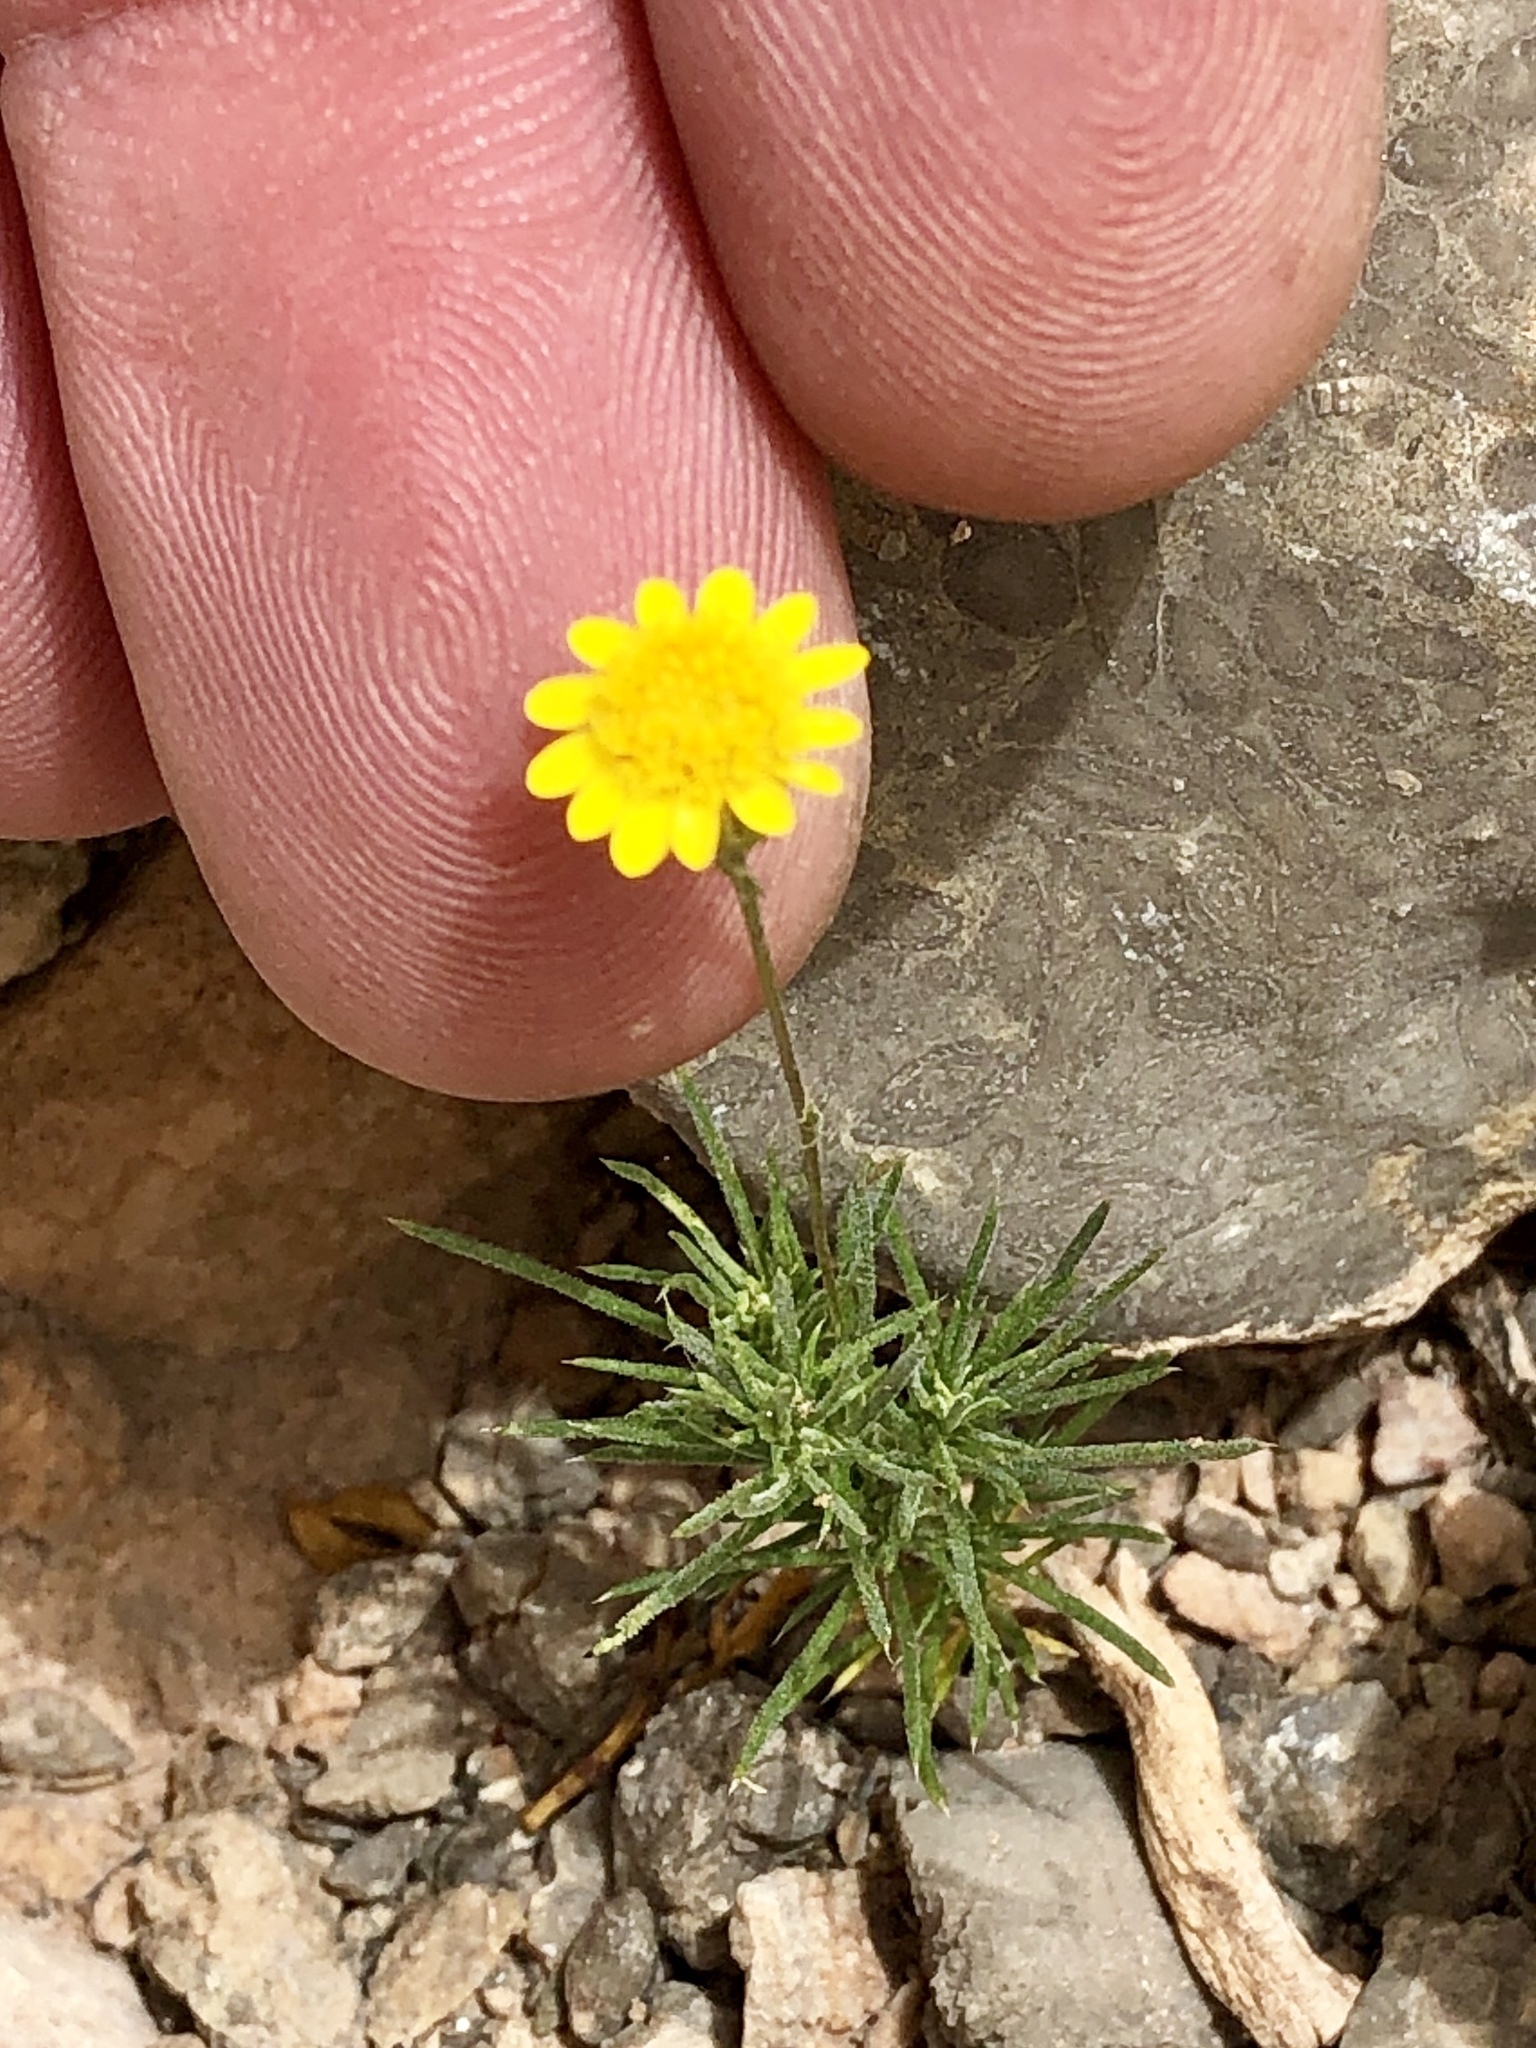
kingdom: Plantae
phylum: Tracheophyta
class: Magnoliopsida
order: Asterales
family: Asteraceae
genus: Thymophylla
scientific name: Thymophylla pentachaeta
